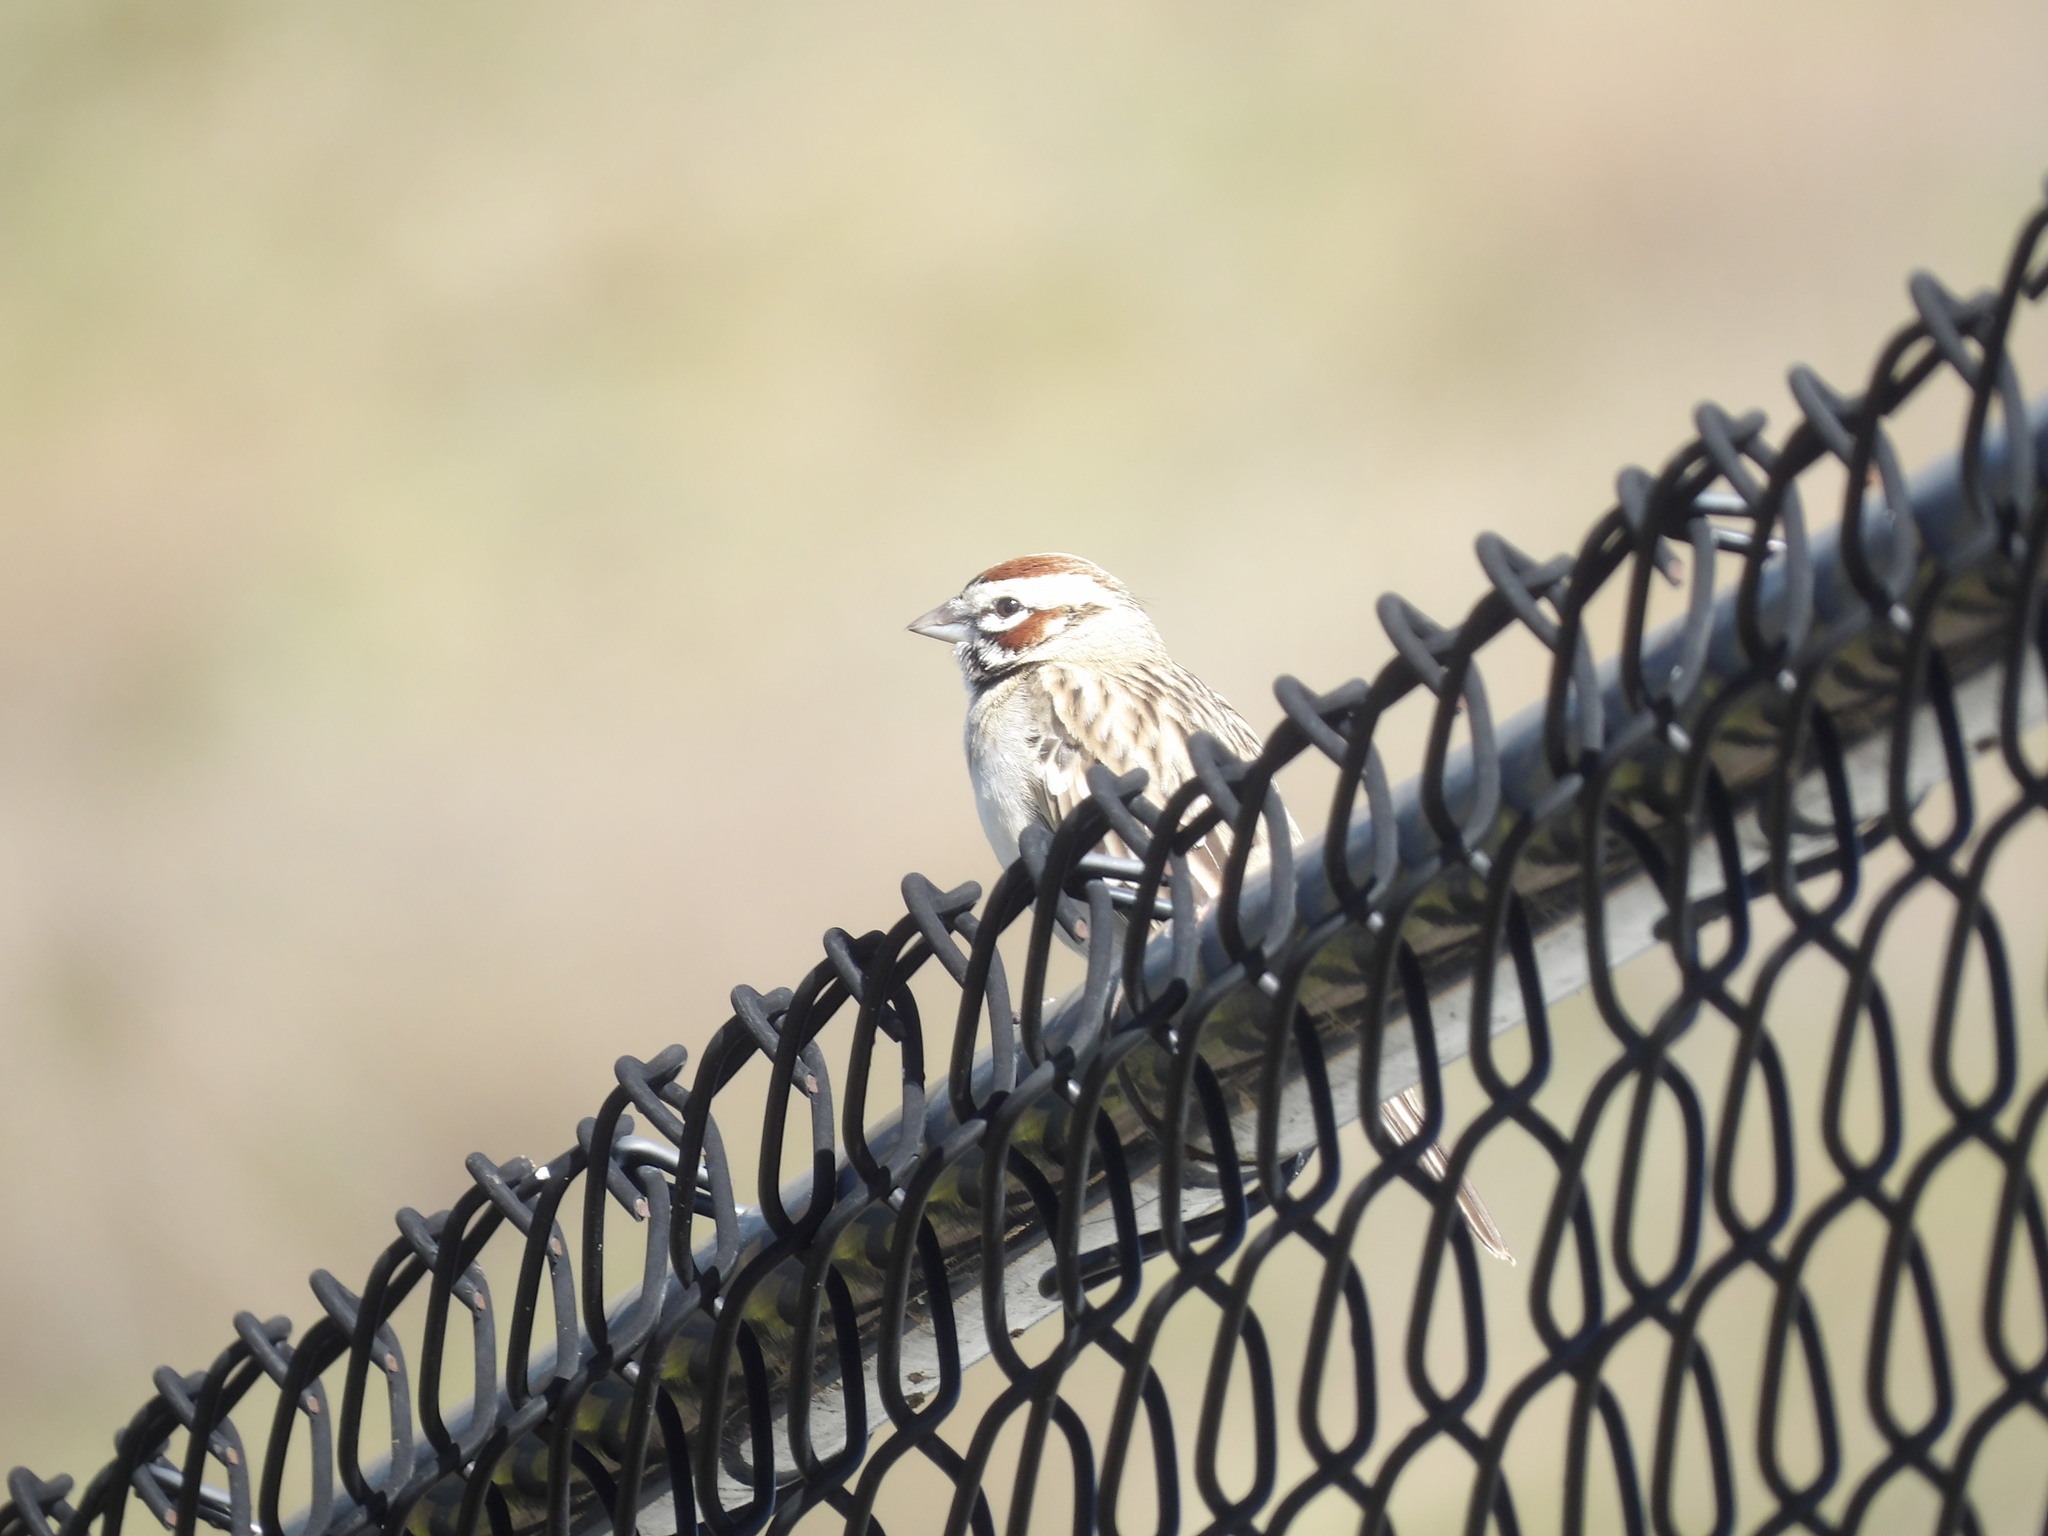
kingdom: Animalia
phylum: Chordata
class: Aves
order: Passeriformes
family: Passerellidae
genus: Chondestes
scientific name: Chondestes grammacus
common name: Lark sparrow
